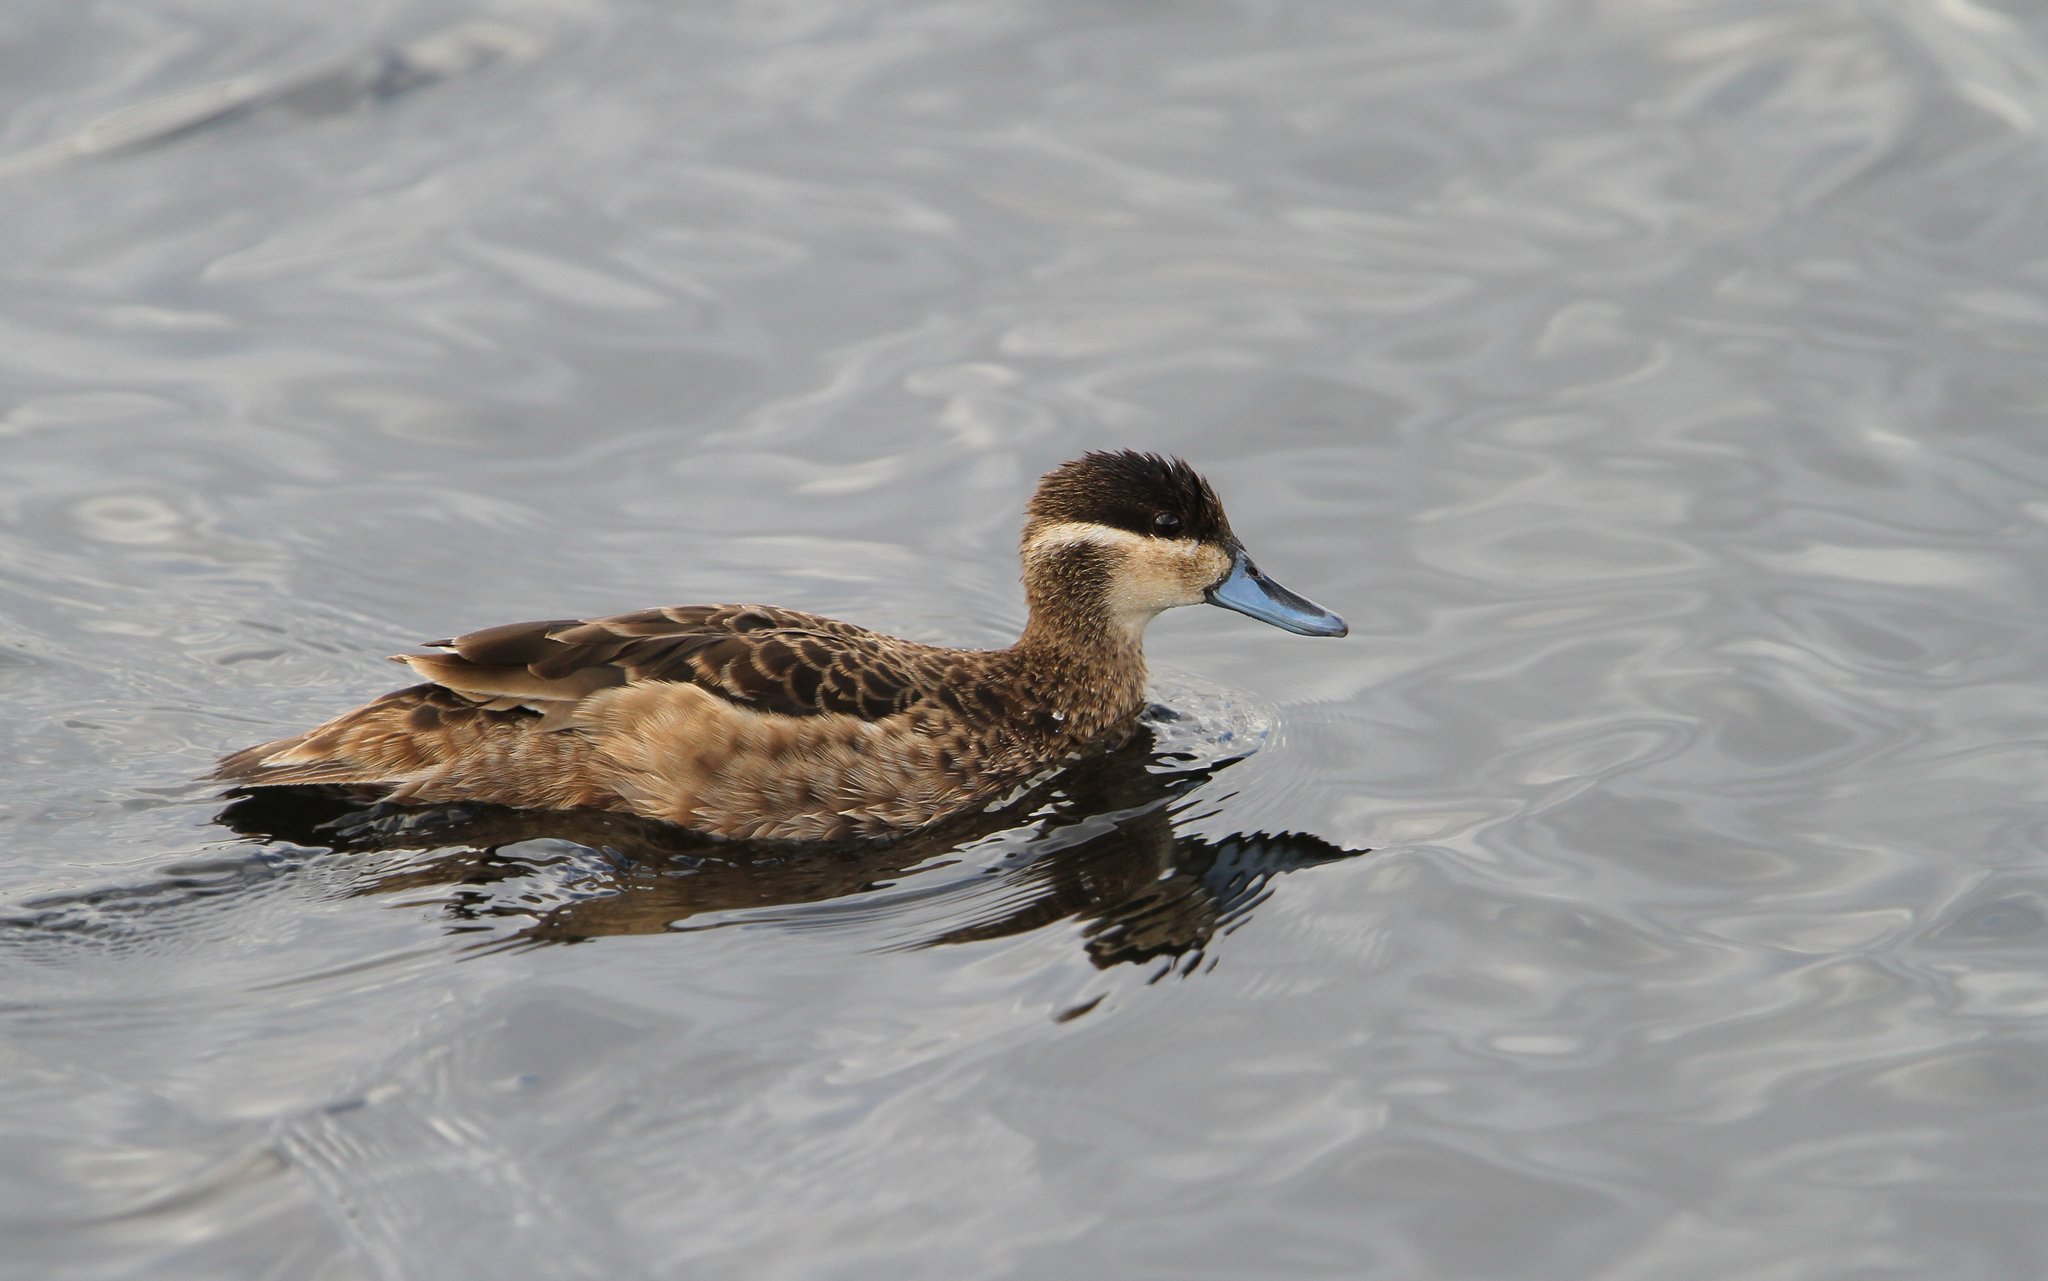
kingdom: Animalia
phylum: Chordata
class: Aves
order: Anseriformes
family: Anatidae
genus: Spatula
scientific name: Spatula hottentota
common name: Blue-billed teal
